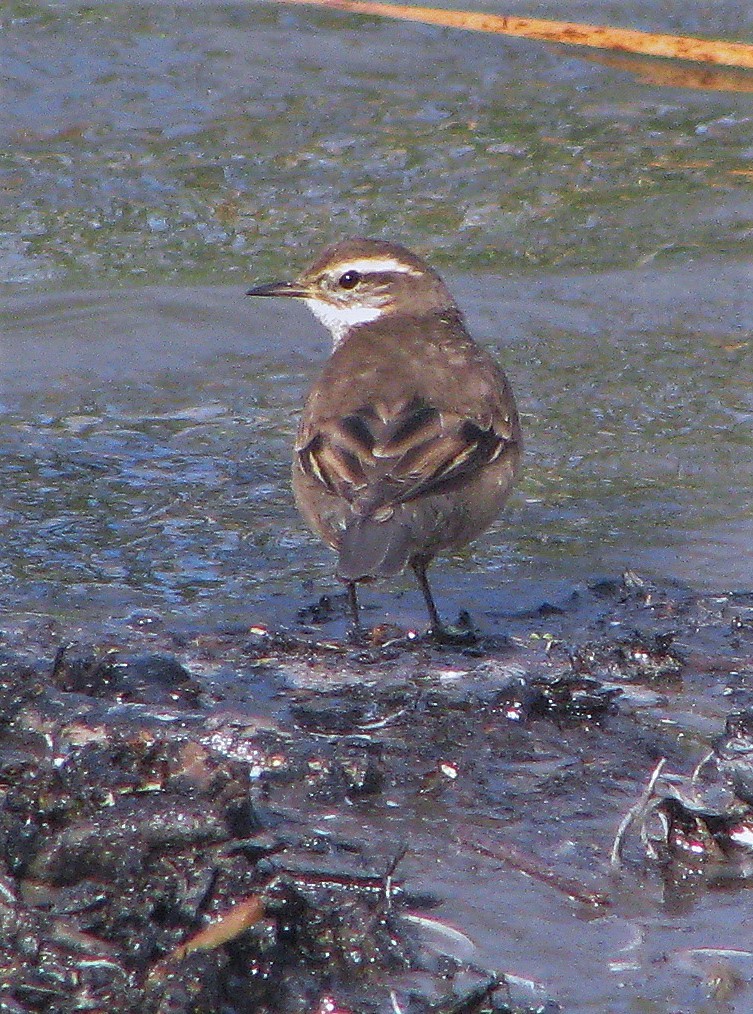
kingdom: Animalia
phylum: Chordata
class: Aves
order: Passeriformes
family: Furnariidae
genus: Cinclodes
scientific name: Cinclodes fuscus
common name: Buff-winged cinclodes
